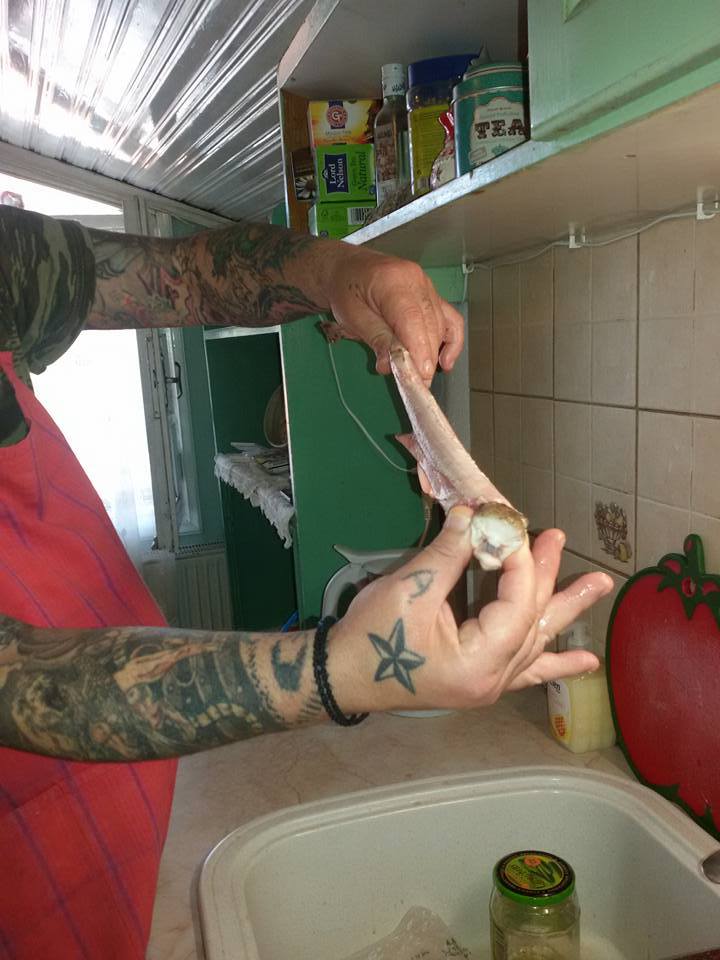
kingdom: Animalia
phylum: Chordata
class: Elasmobranchii
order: Carcharhiniformes
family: Scyliorhinidae
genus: Scyliorhinus
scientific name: Scyliorhinus canicula
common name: Lesser spotted dogfish
